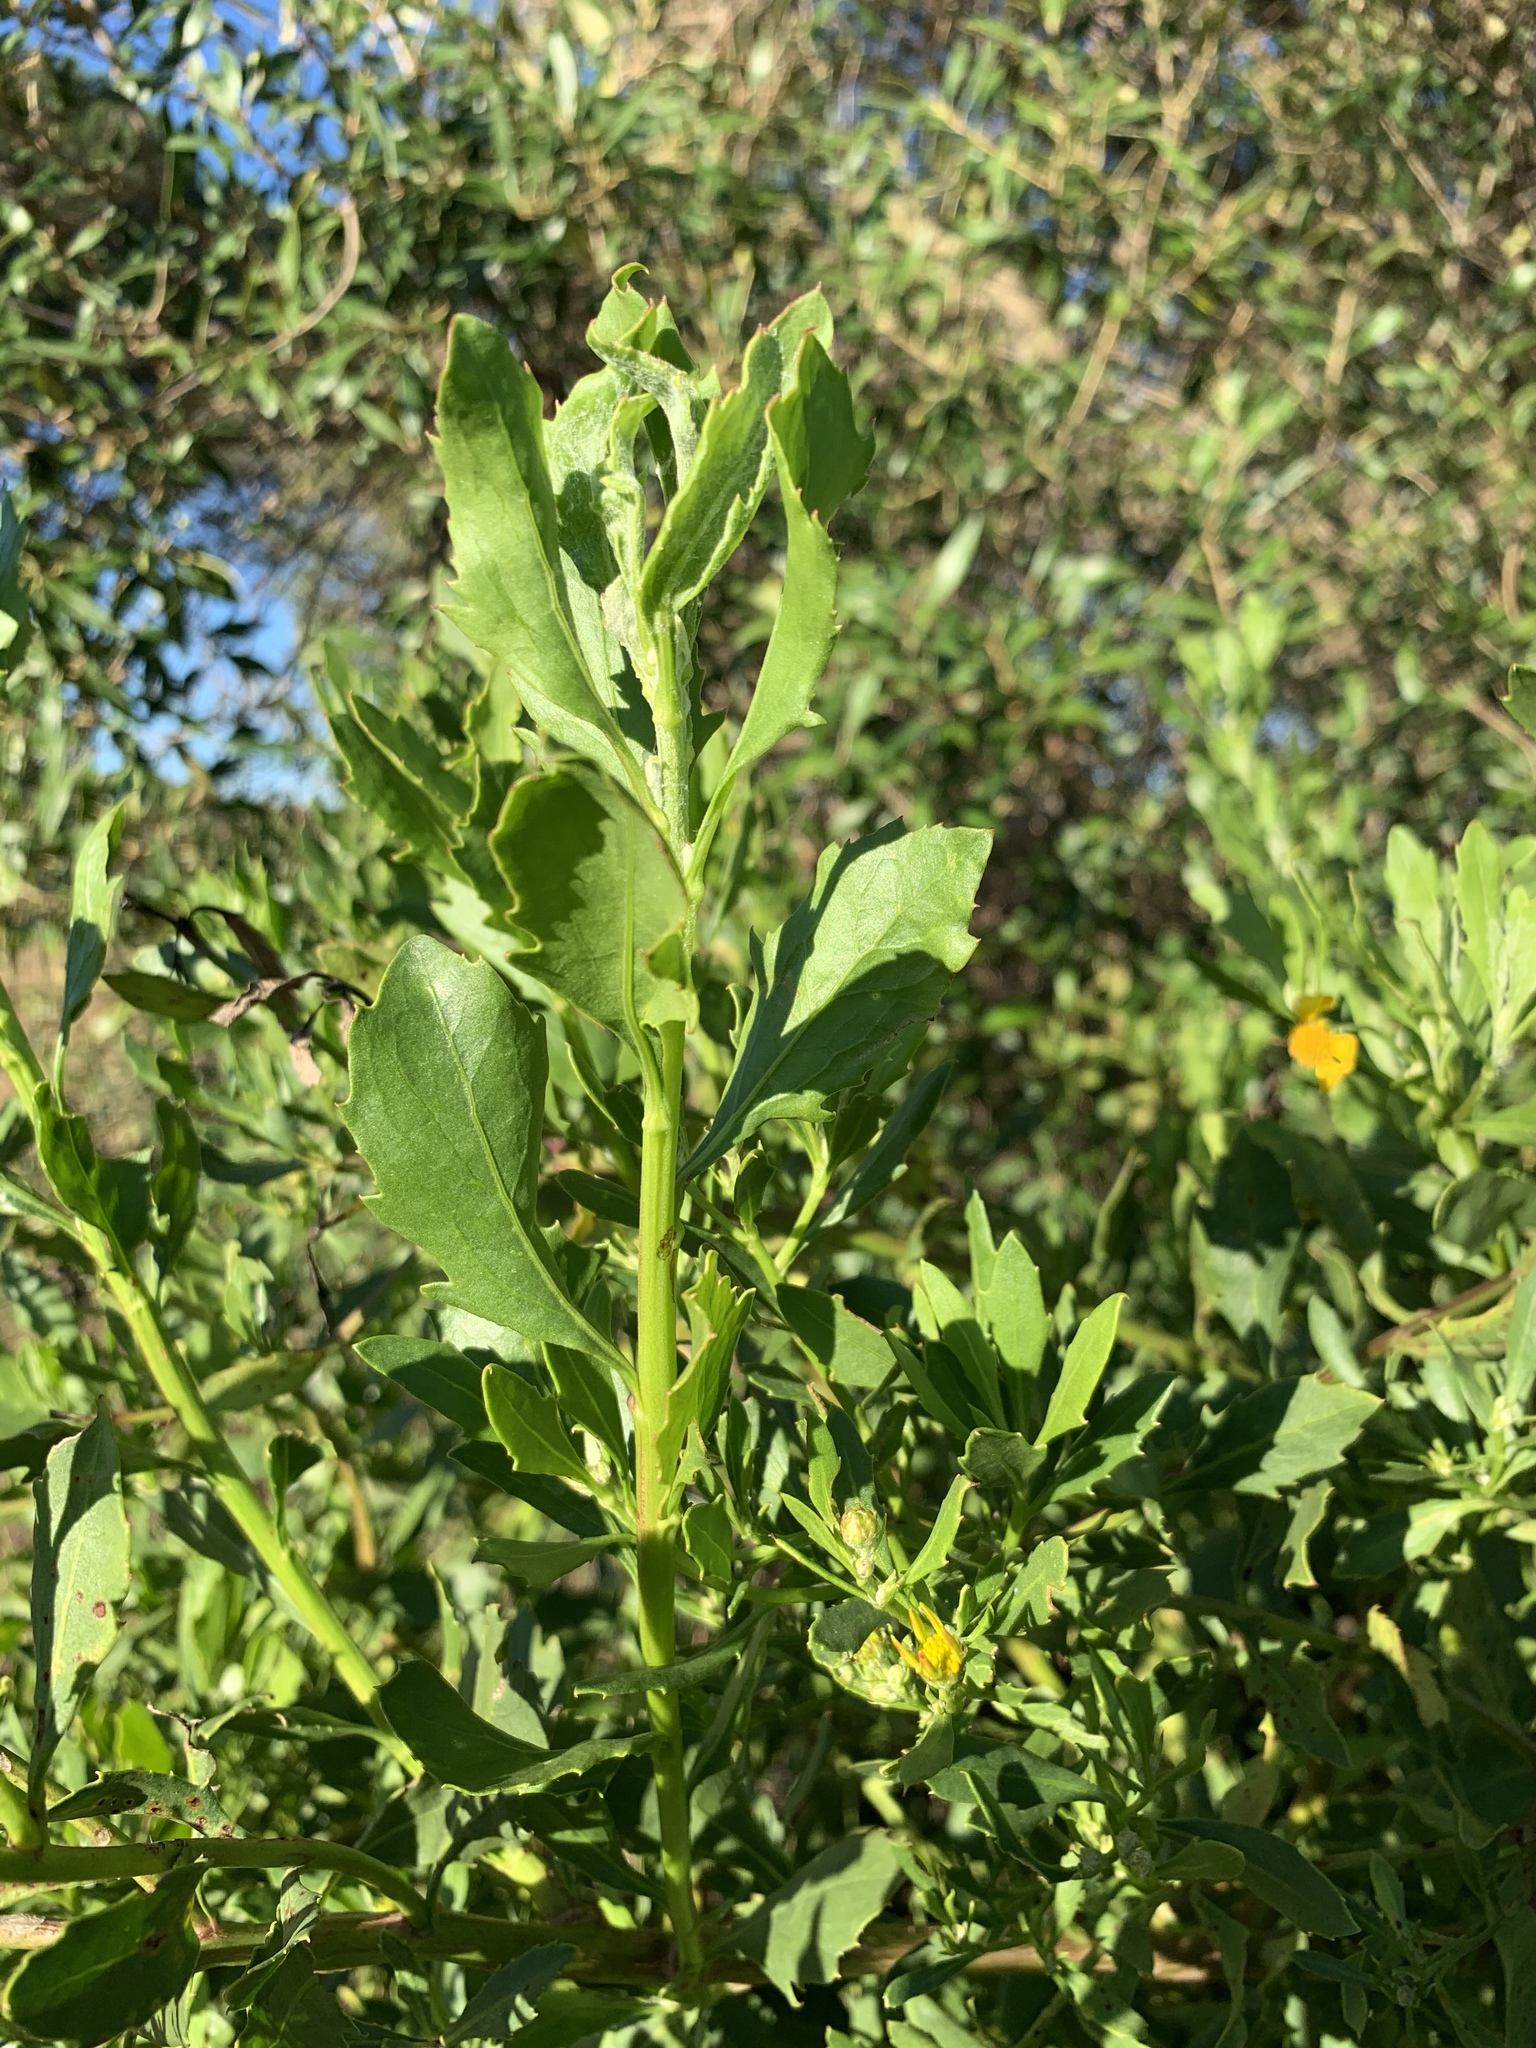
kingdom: Plantae
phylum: Tracheophyta
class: Magnoliopsida
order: Asterales
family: Asteraceae
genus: Osteospermum
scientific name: Osteospermum moniliferum
